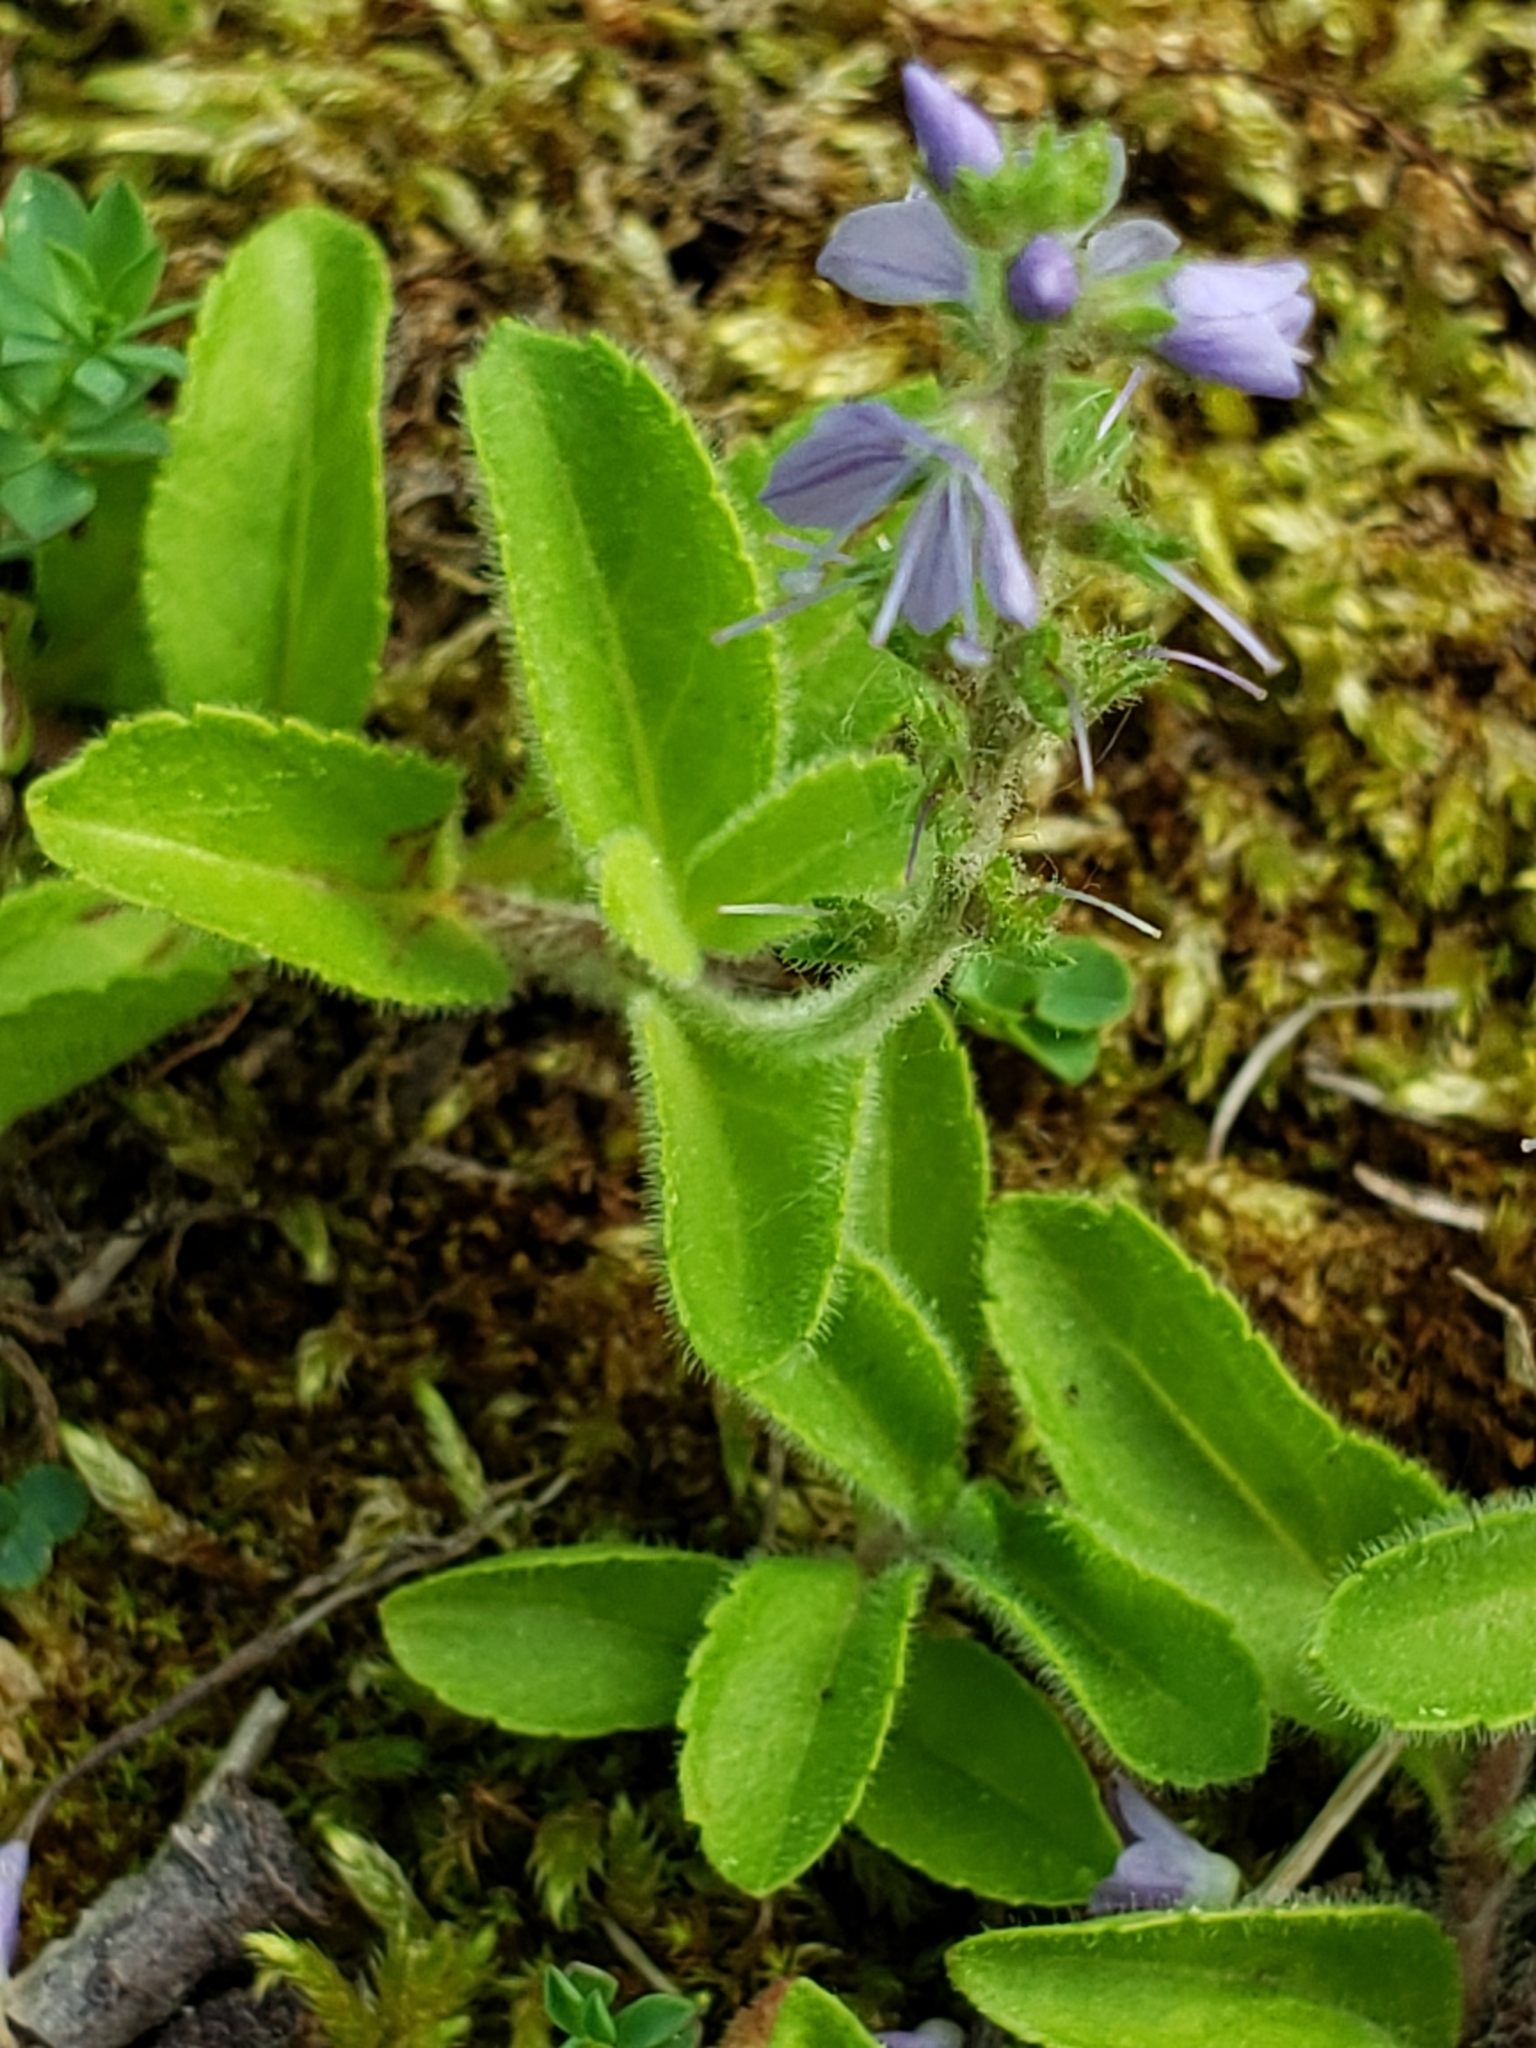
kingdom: Plantae
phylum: Tracheophyta
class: Magnoliopsida
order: Lamiales
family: Plantaginaceae
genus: Veronica
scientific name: Veronica officinalis
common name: Common speedwell
